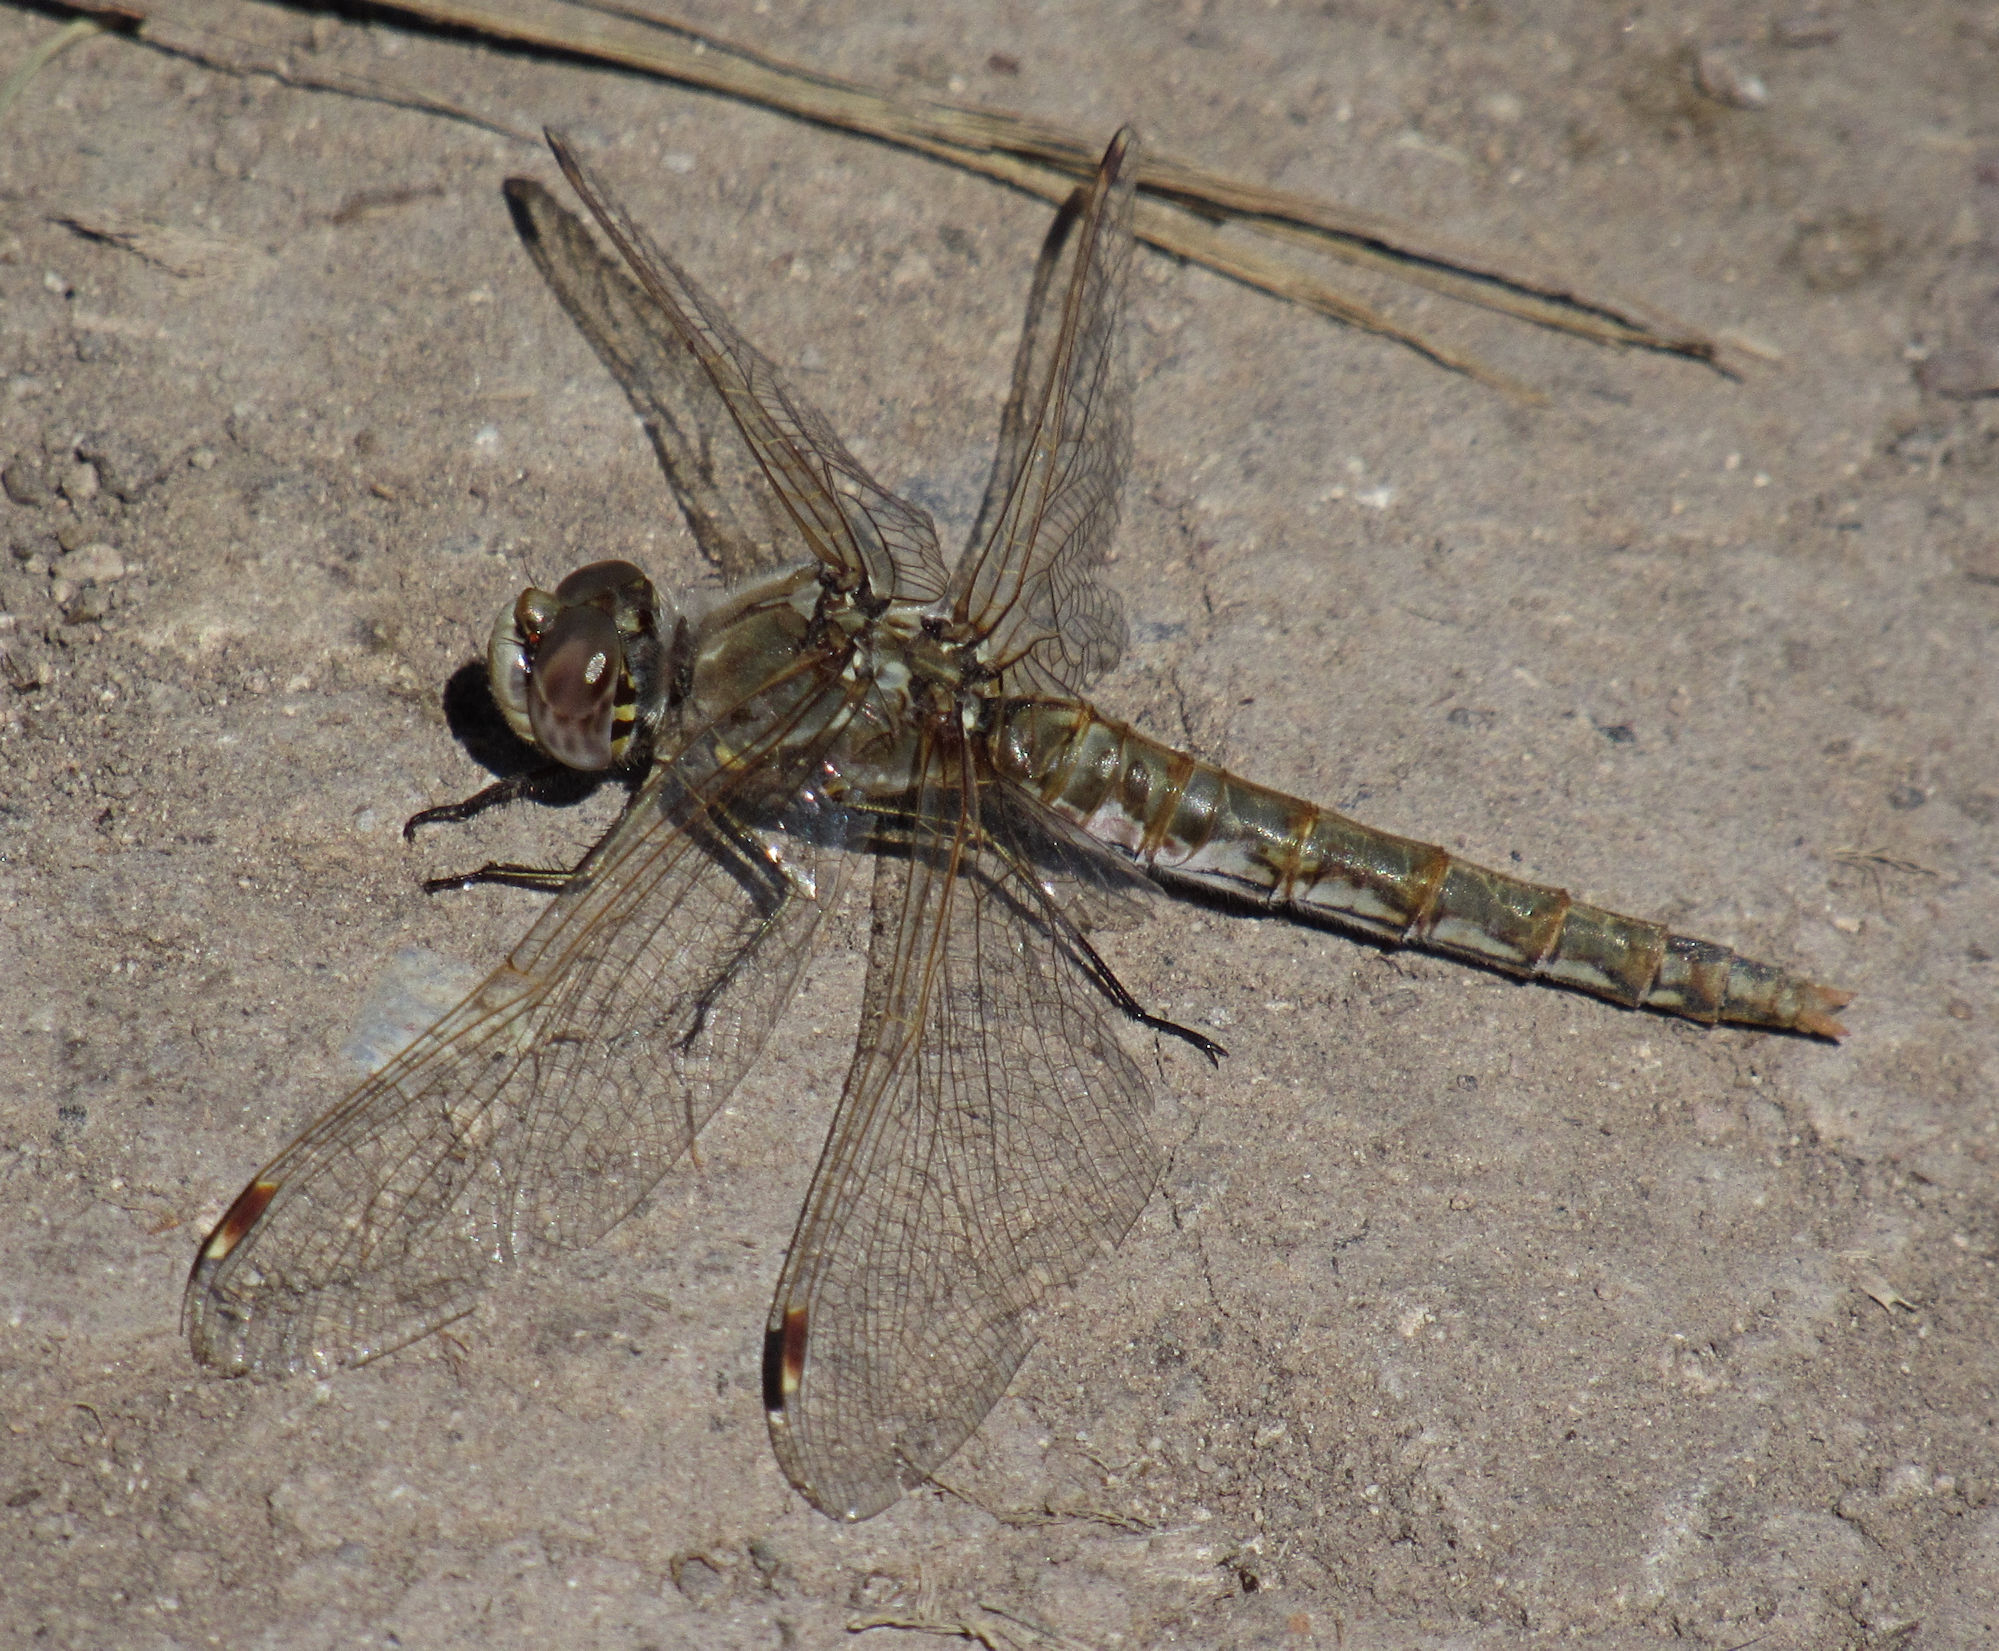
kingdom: Animalia
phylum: Arthropoda
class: Insecta
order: Odonata
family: Libellulidae
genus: Sympetrum
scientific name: Sympetrum corruptum
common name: Variegated meadowhawk
